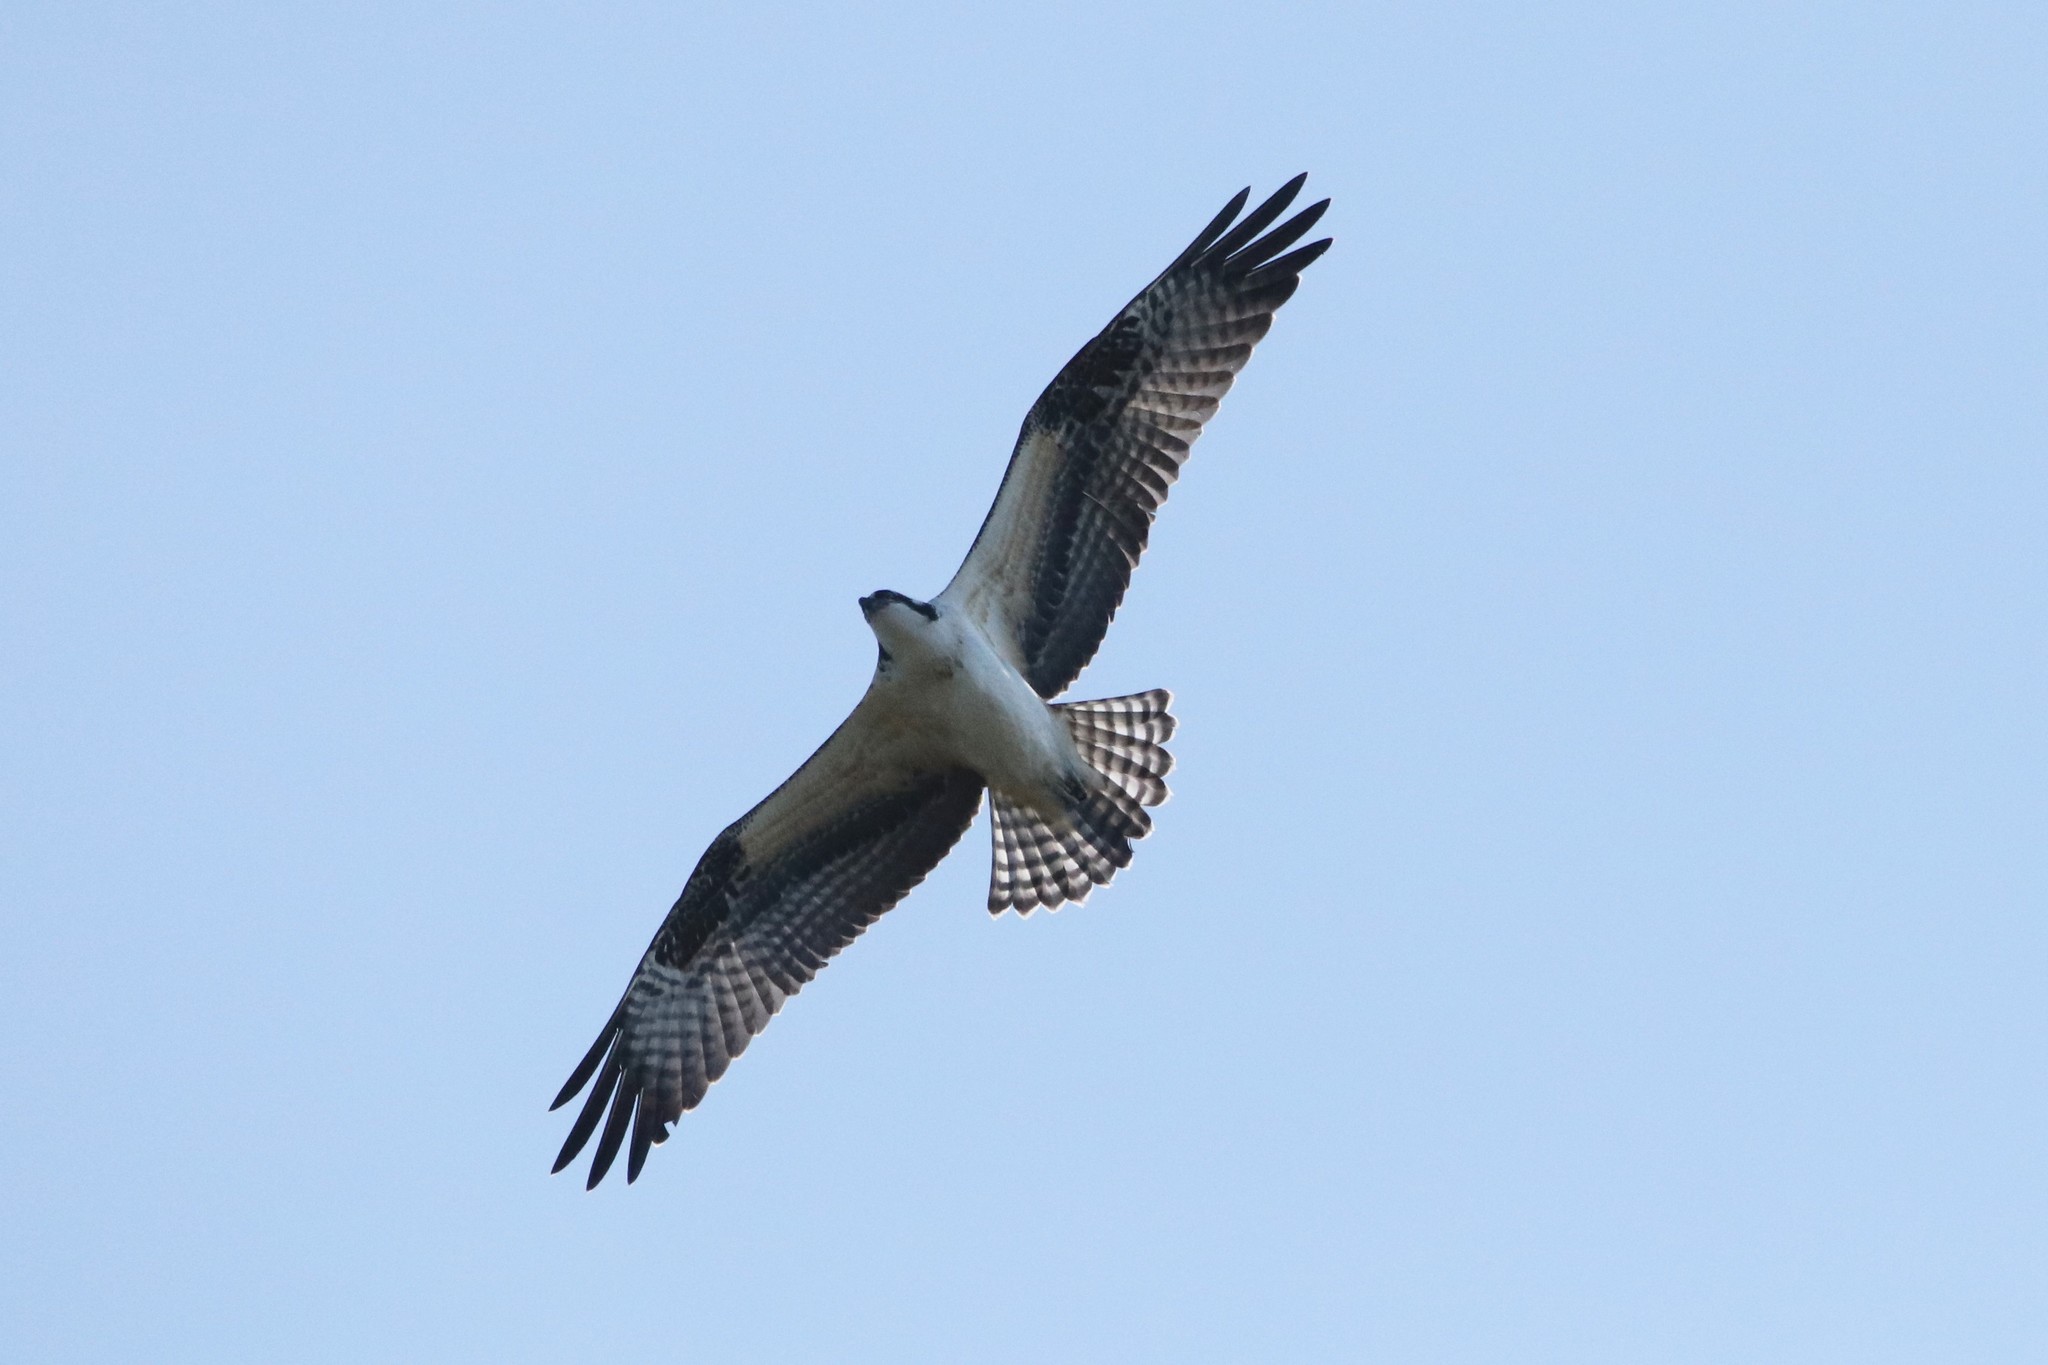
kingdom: Animalia
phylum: Chordata
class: Aves
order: Accipitriformes
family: Pandionidae
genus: Pandion
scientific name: Pandion haliaetus
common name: Osprey
